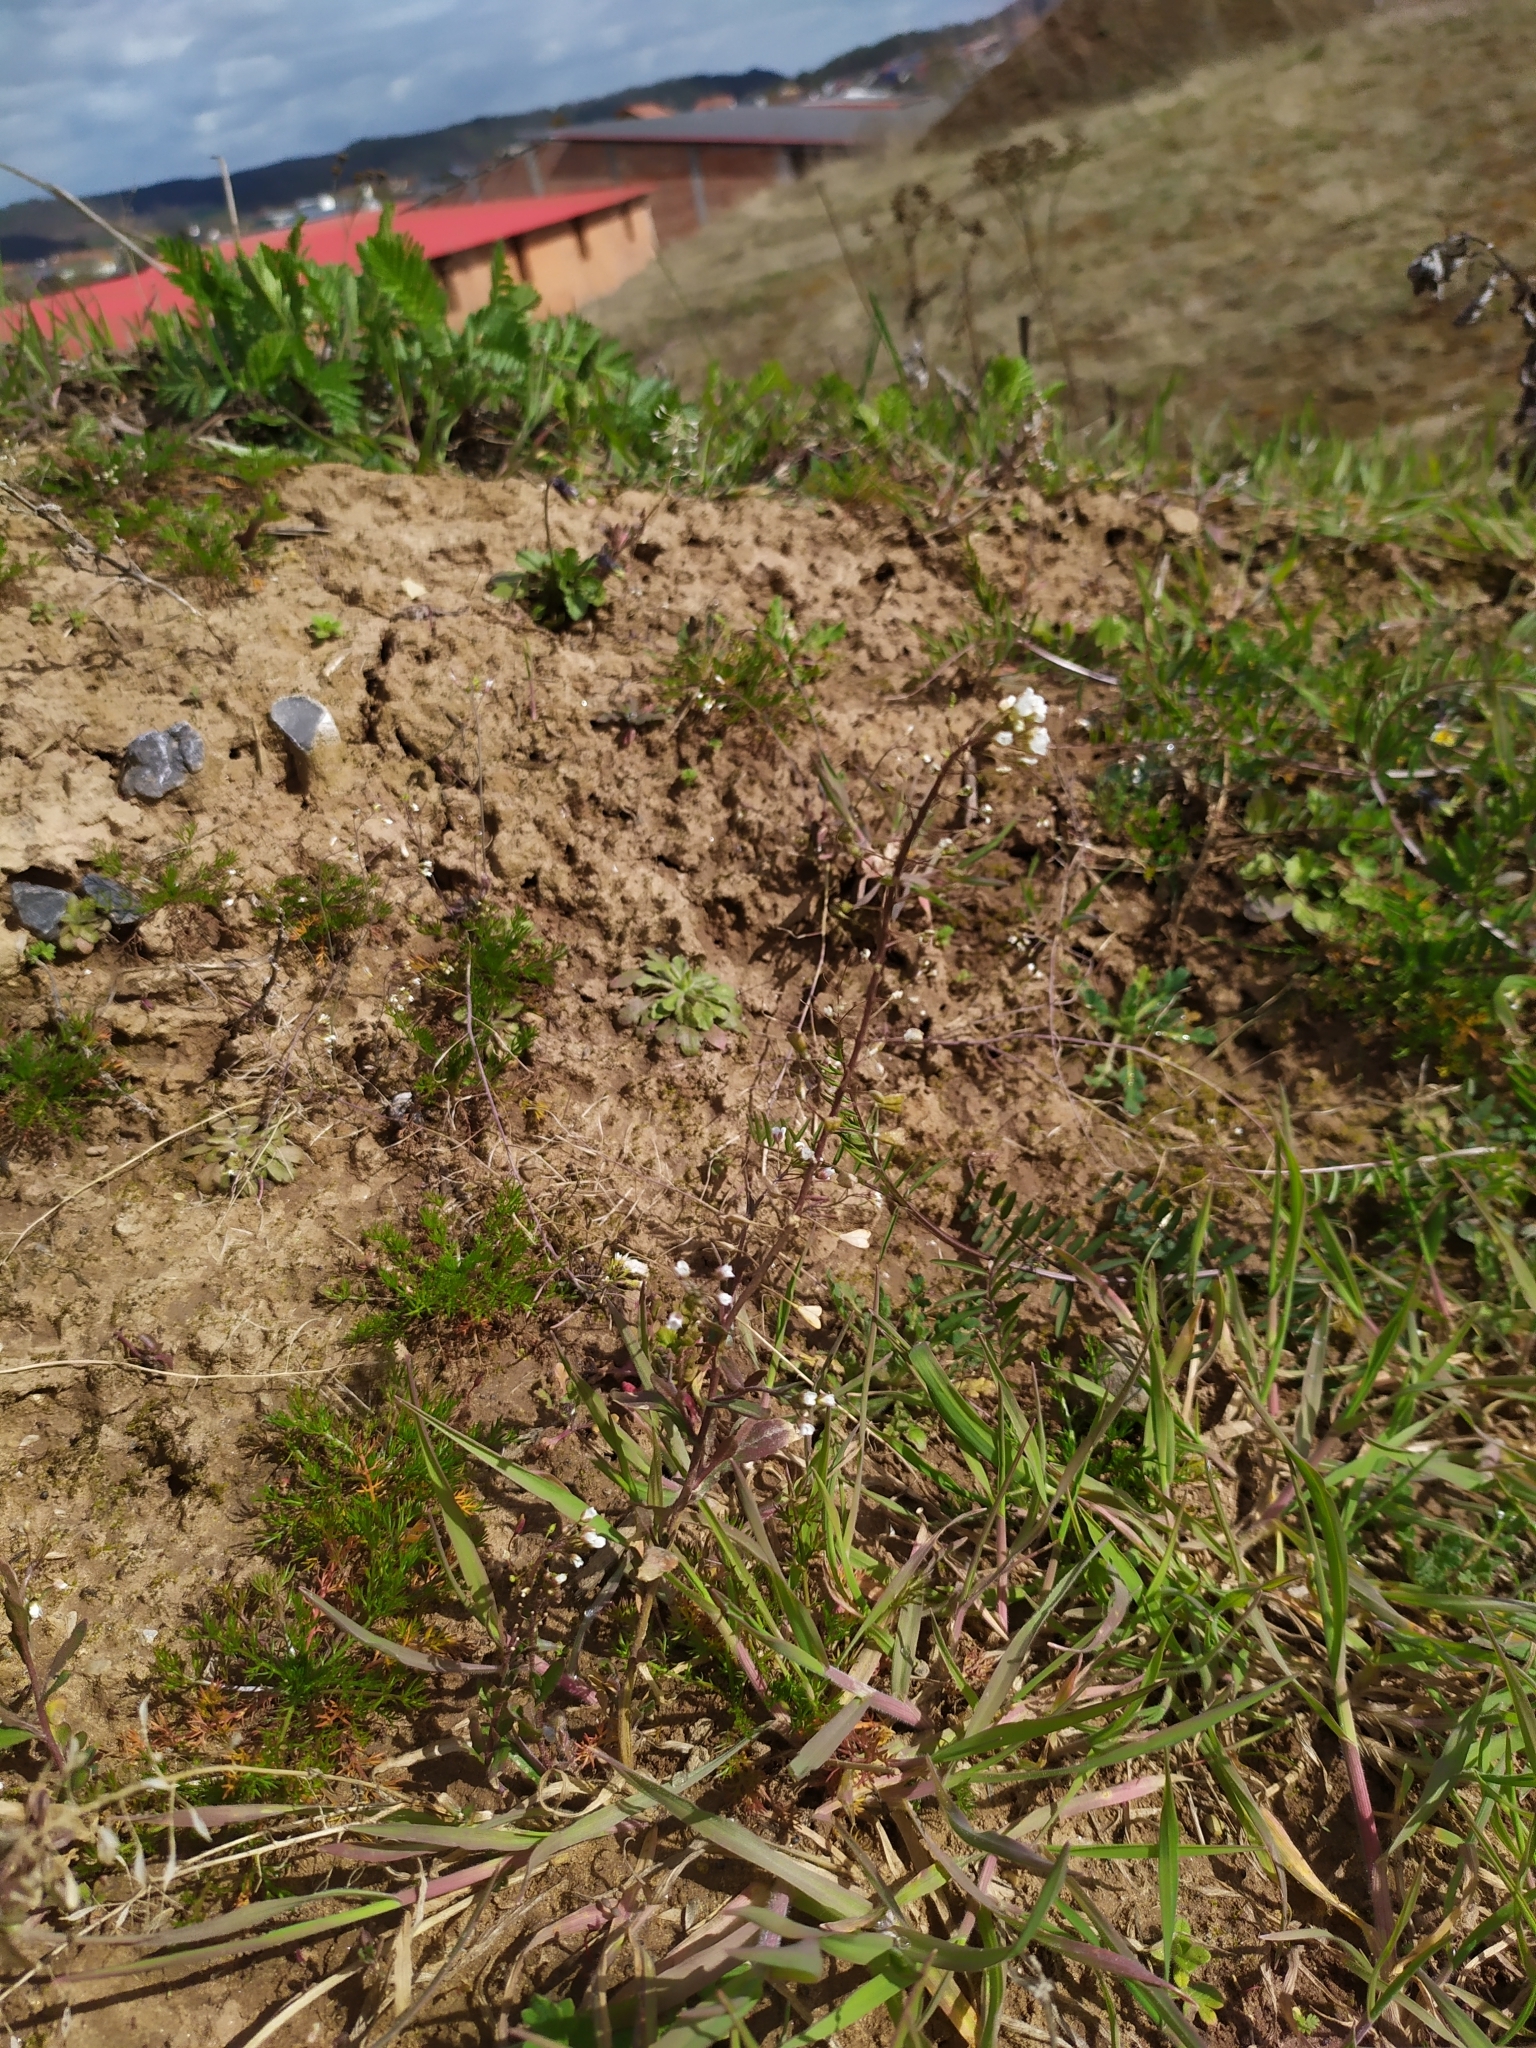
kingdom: Plantae
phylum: Tracheophyta
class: Magnoliopsida
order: Brassicales
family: Brassicaceae
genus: Capsella
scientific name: Capsella bursa-pastoris
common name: Shepherd's purse
